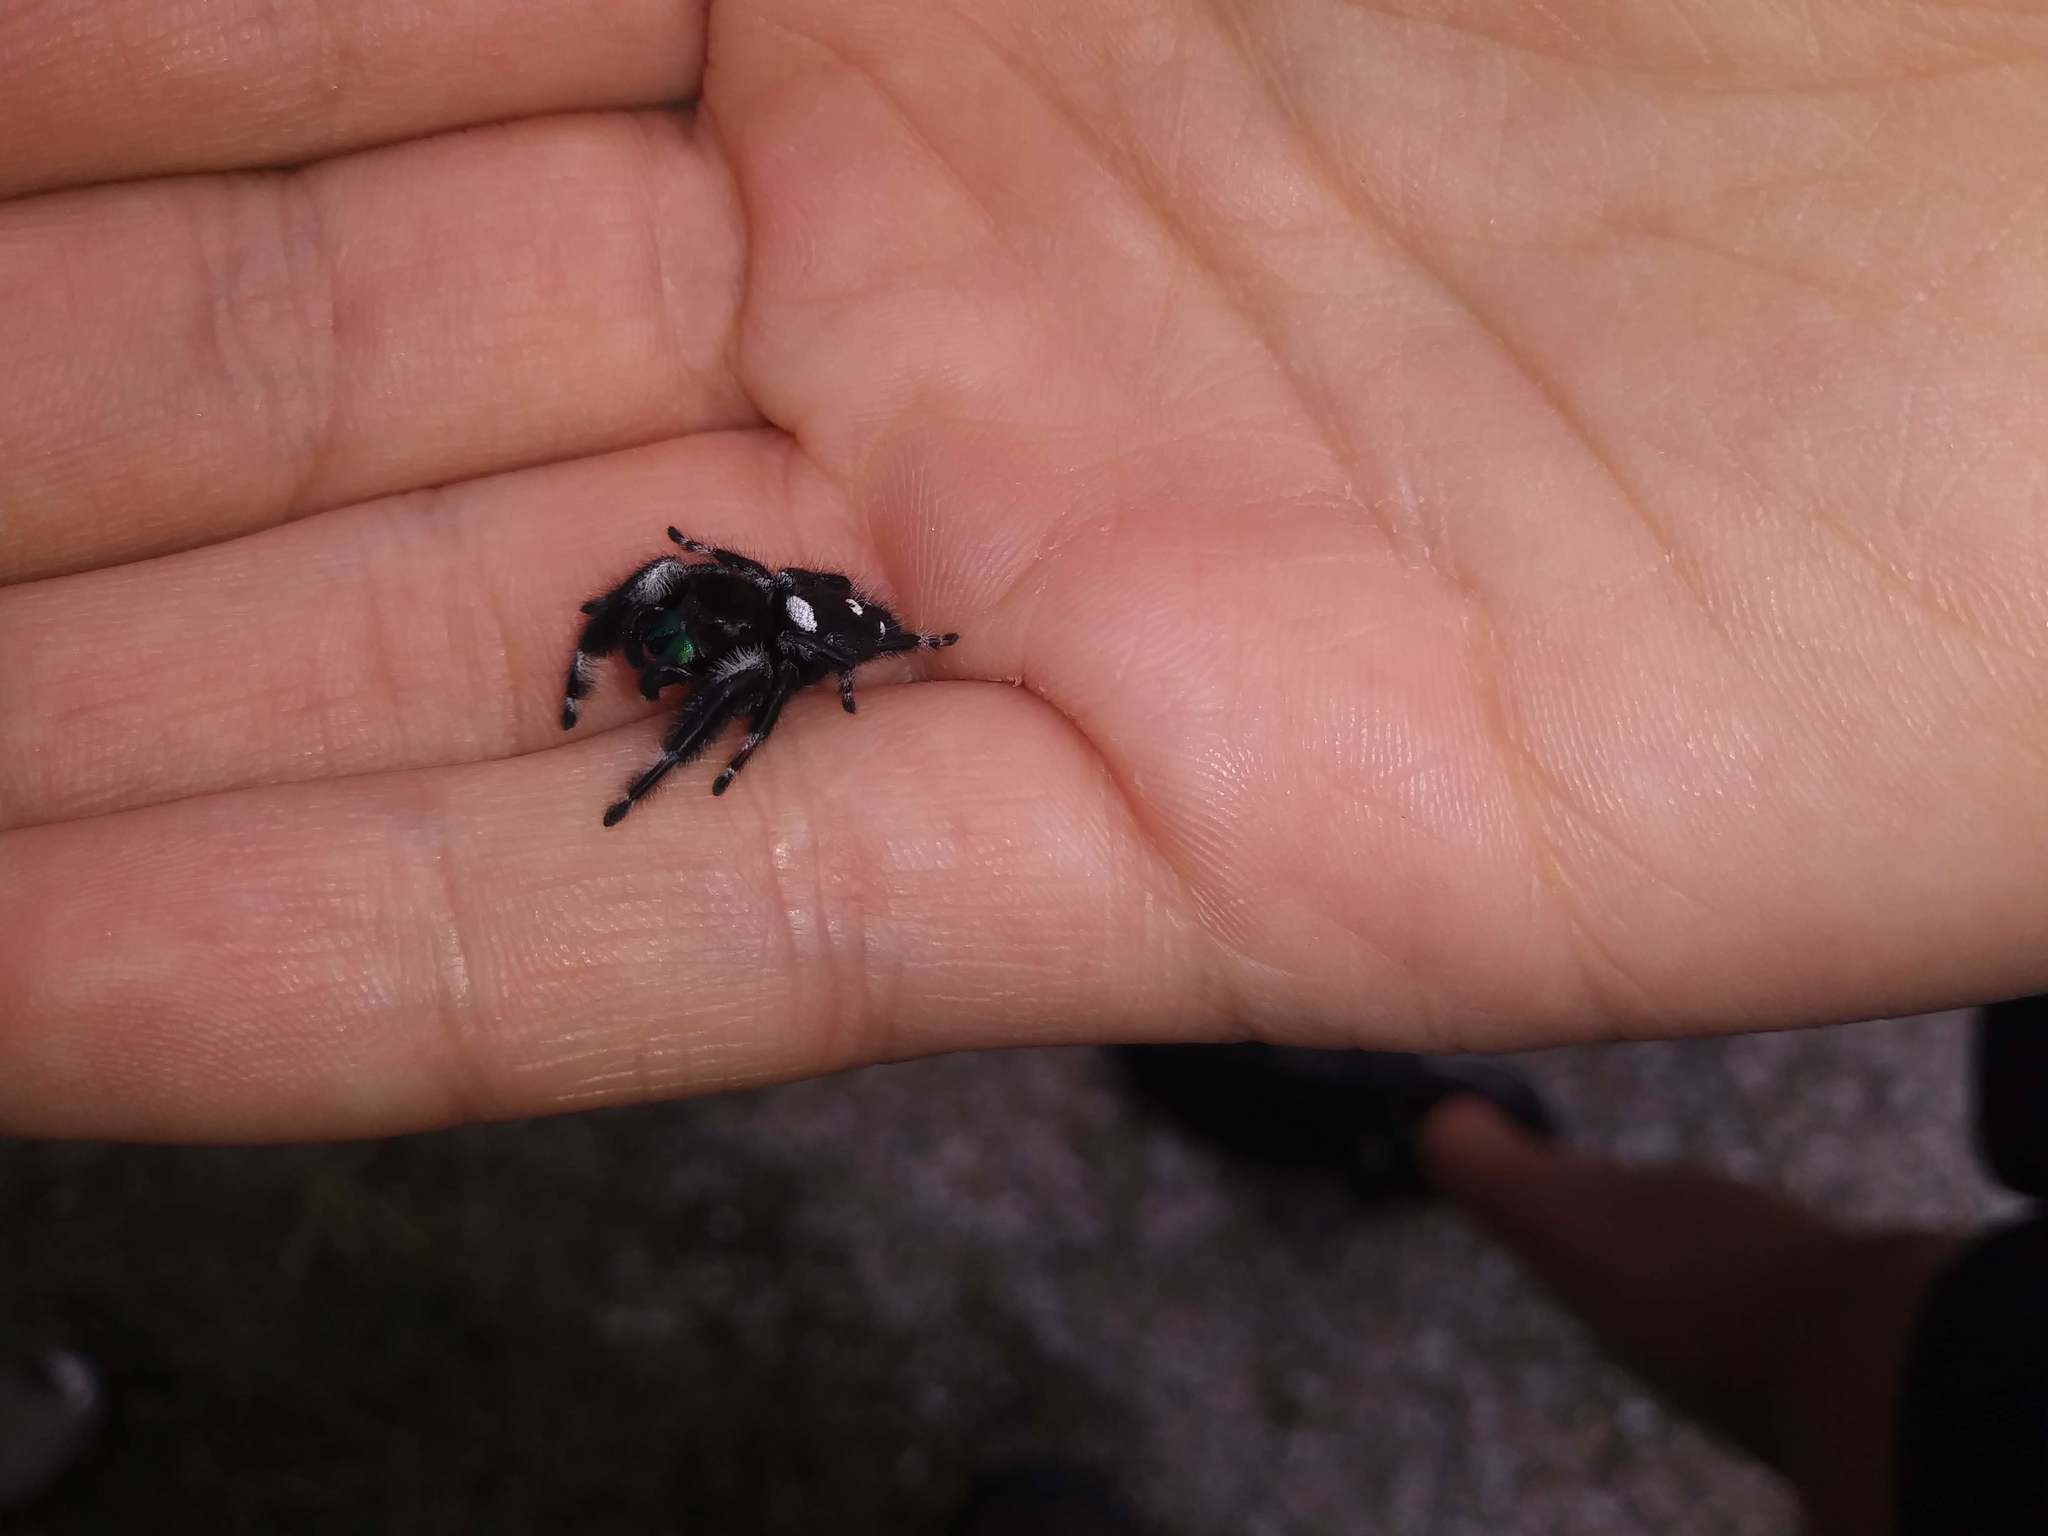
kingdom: Animalia
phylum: Arthropoda
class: Arachnida
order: Araneae
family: Salticidae
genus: Phidippus
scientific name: Phidippus regius
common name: Regal jumper
